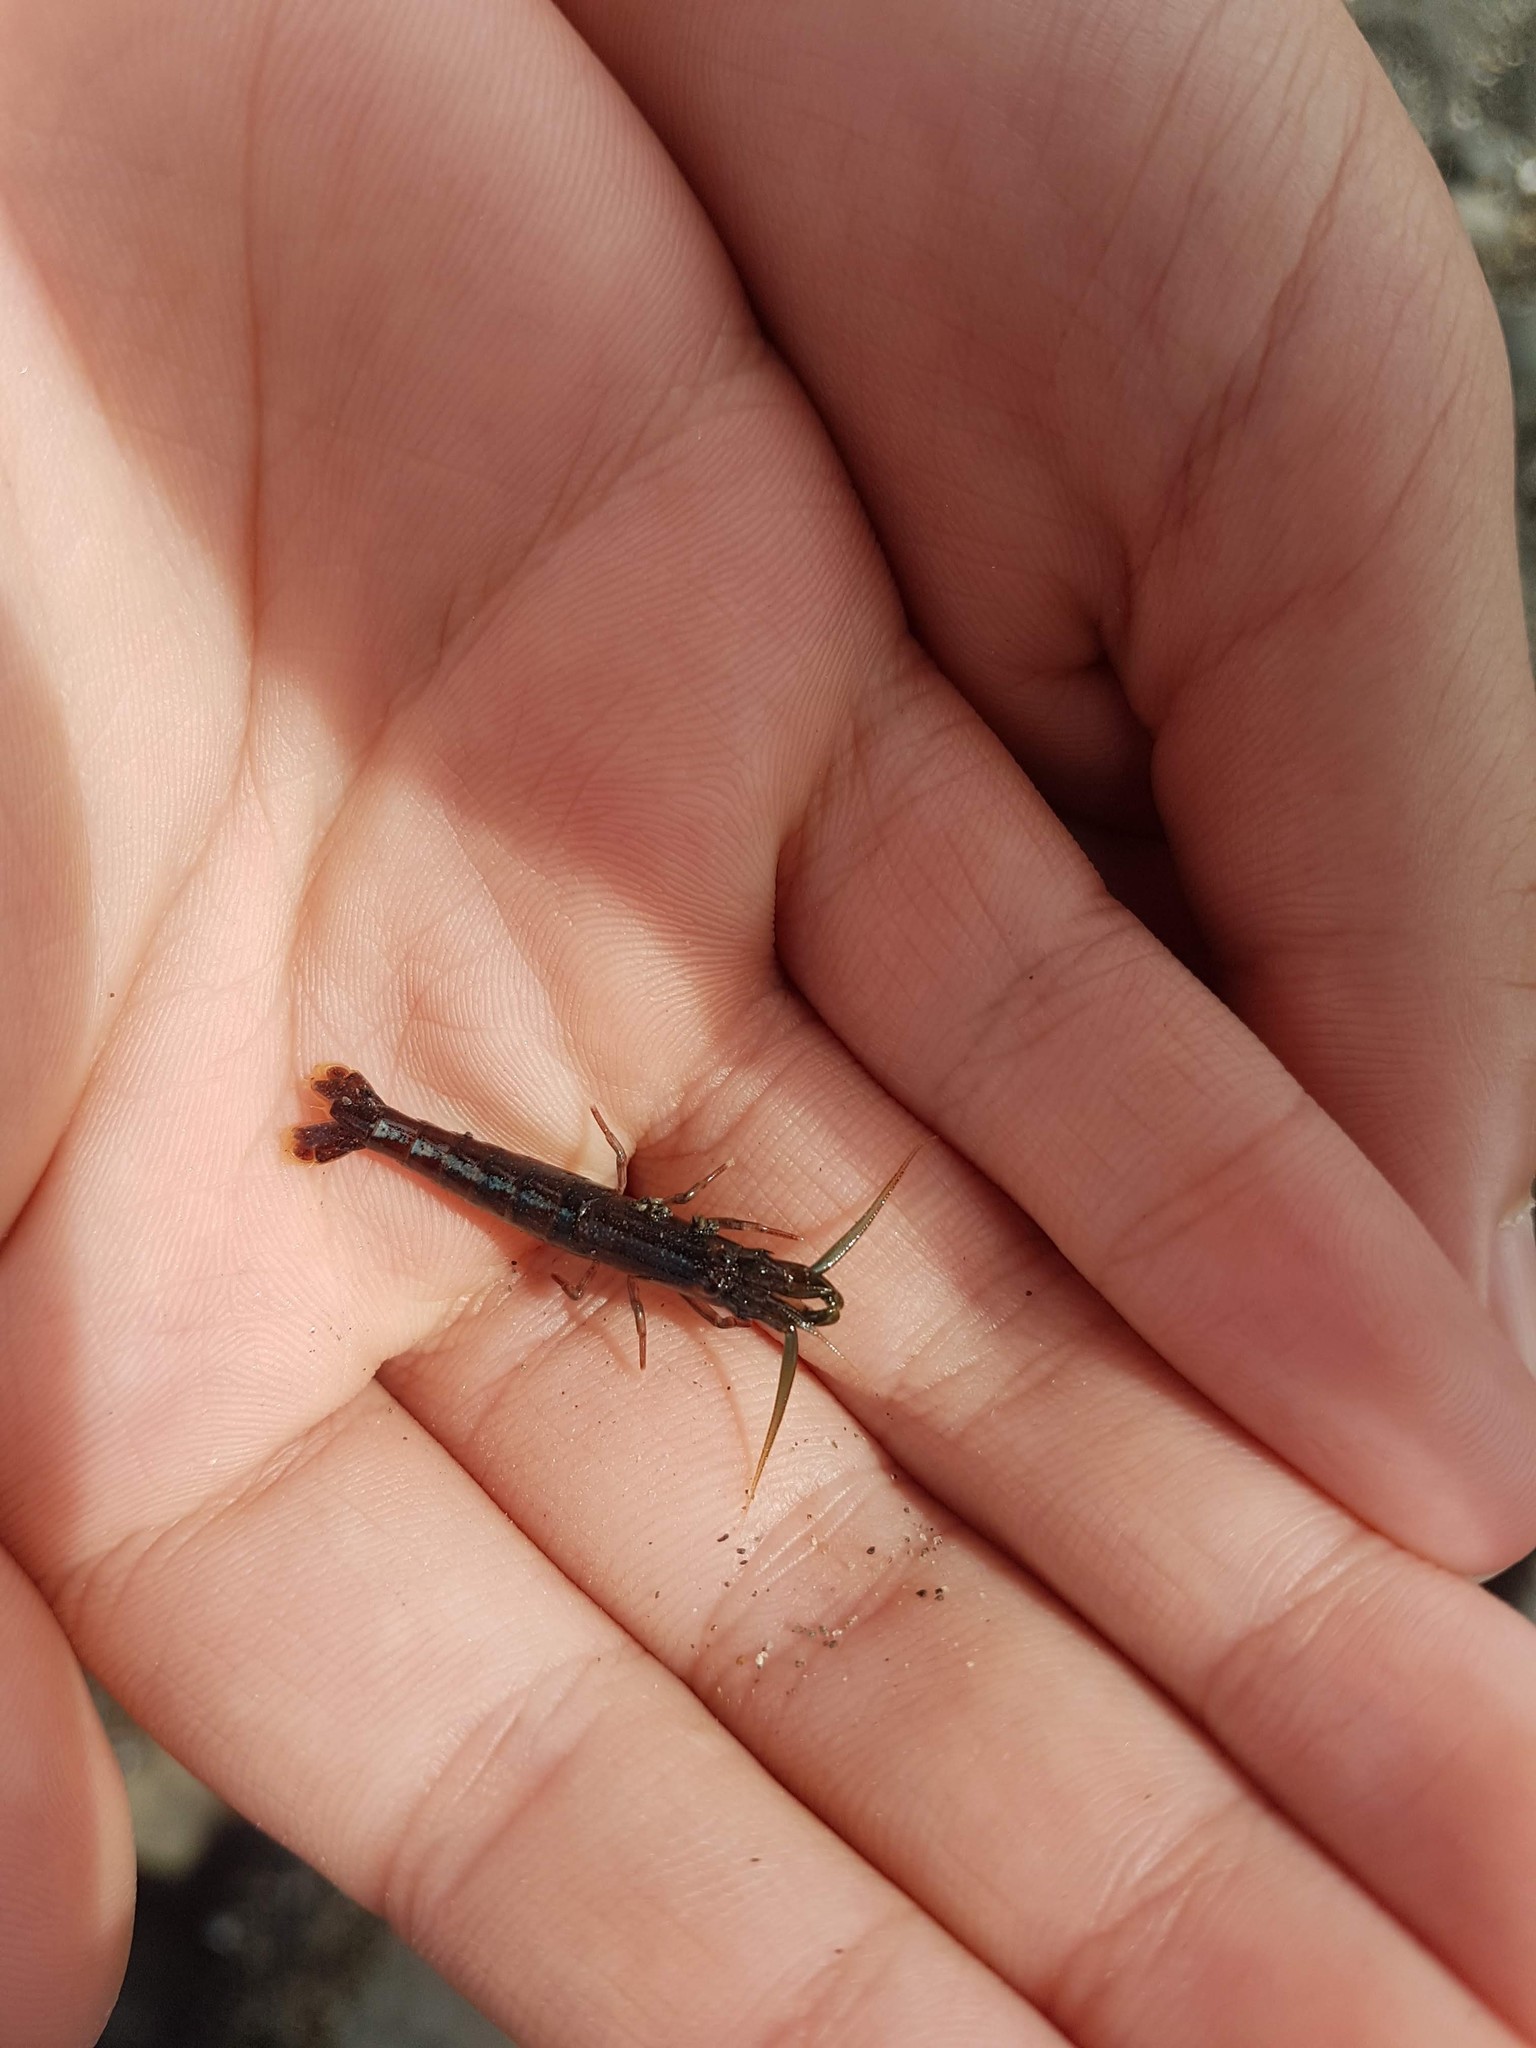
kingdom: Animalia
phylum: Arthropoda
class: Malacostraca
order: Decapoda
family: Alpheidae
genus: Betaeopsis
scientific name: Betaeopsis aequimanus
